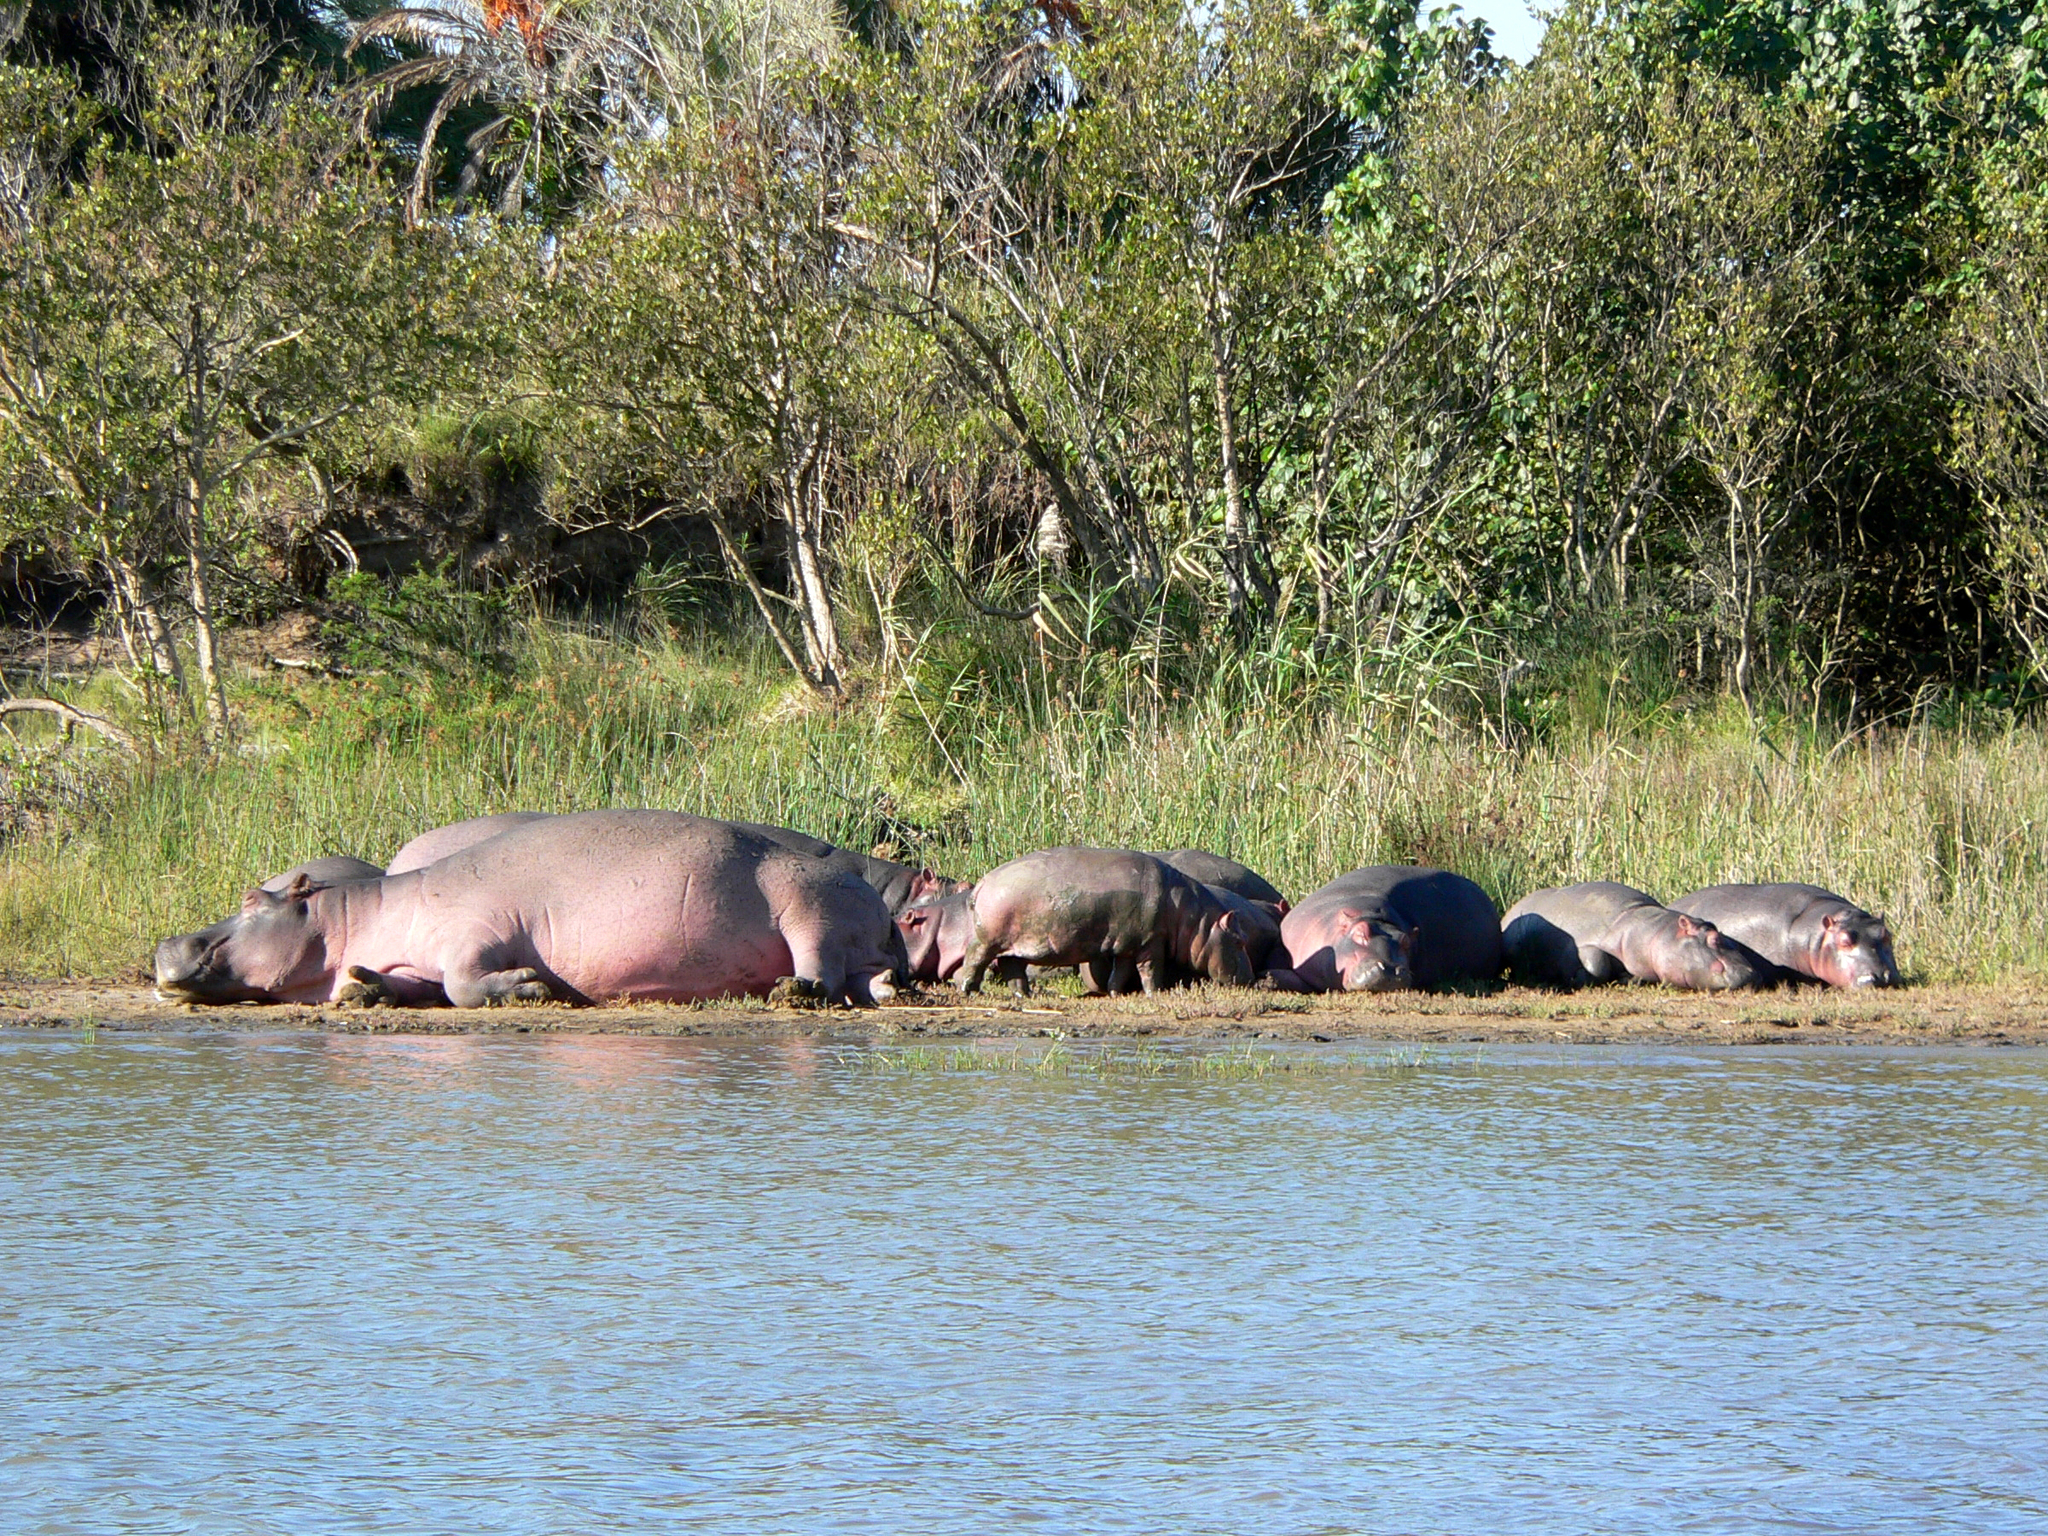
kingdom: Animalia
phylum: Chordata
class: Mammalia
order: Artiodactyla
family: Hippopotamidae
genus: Hippopotamus
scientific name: Hippopotamus amphibius
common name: Common hippopotamus
